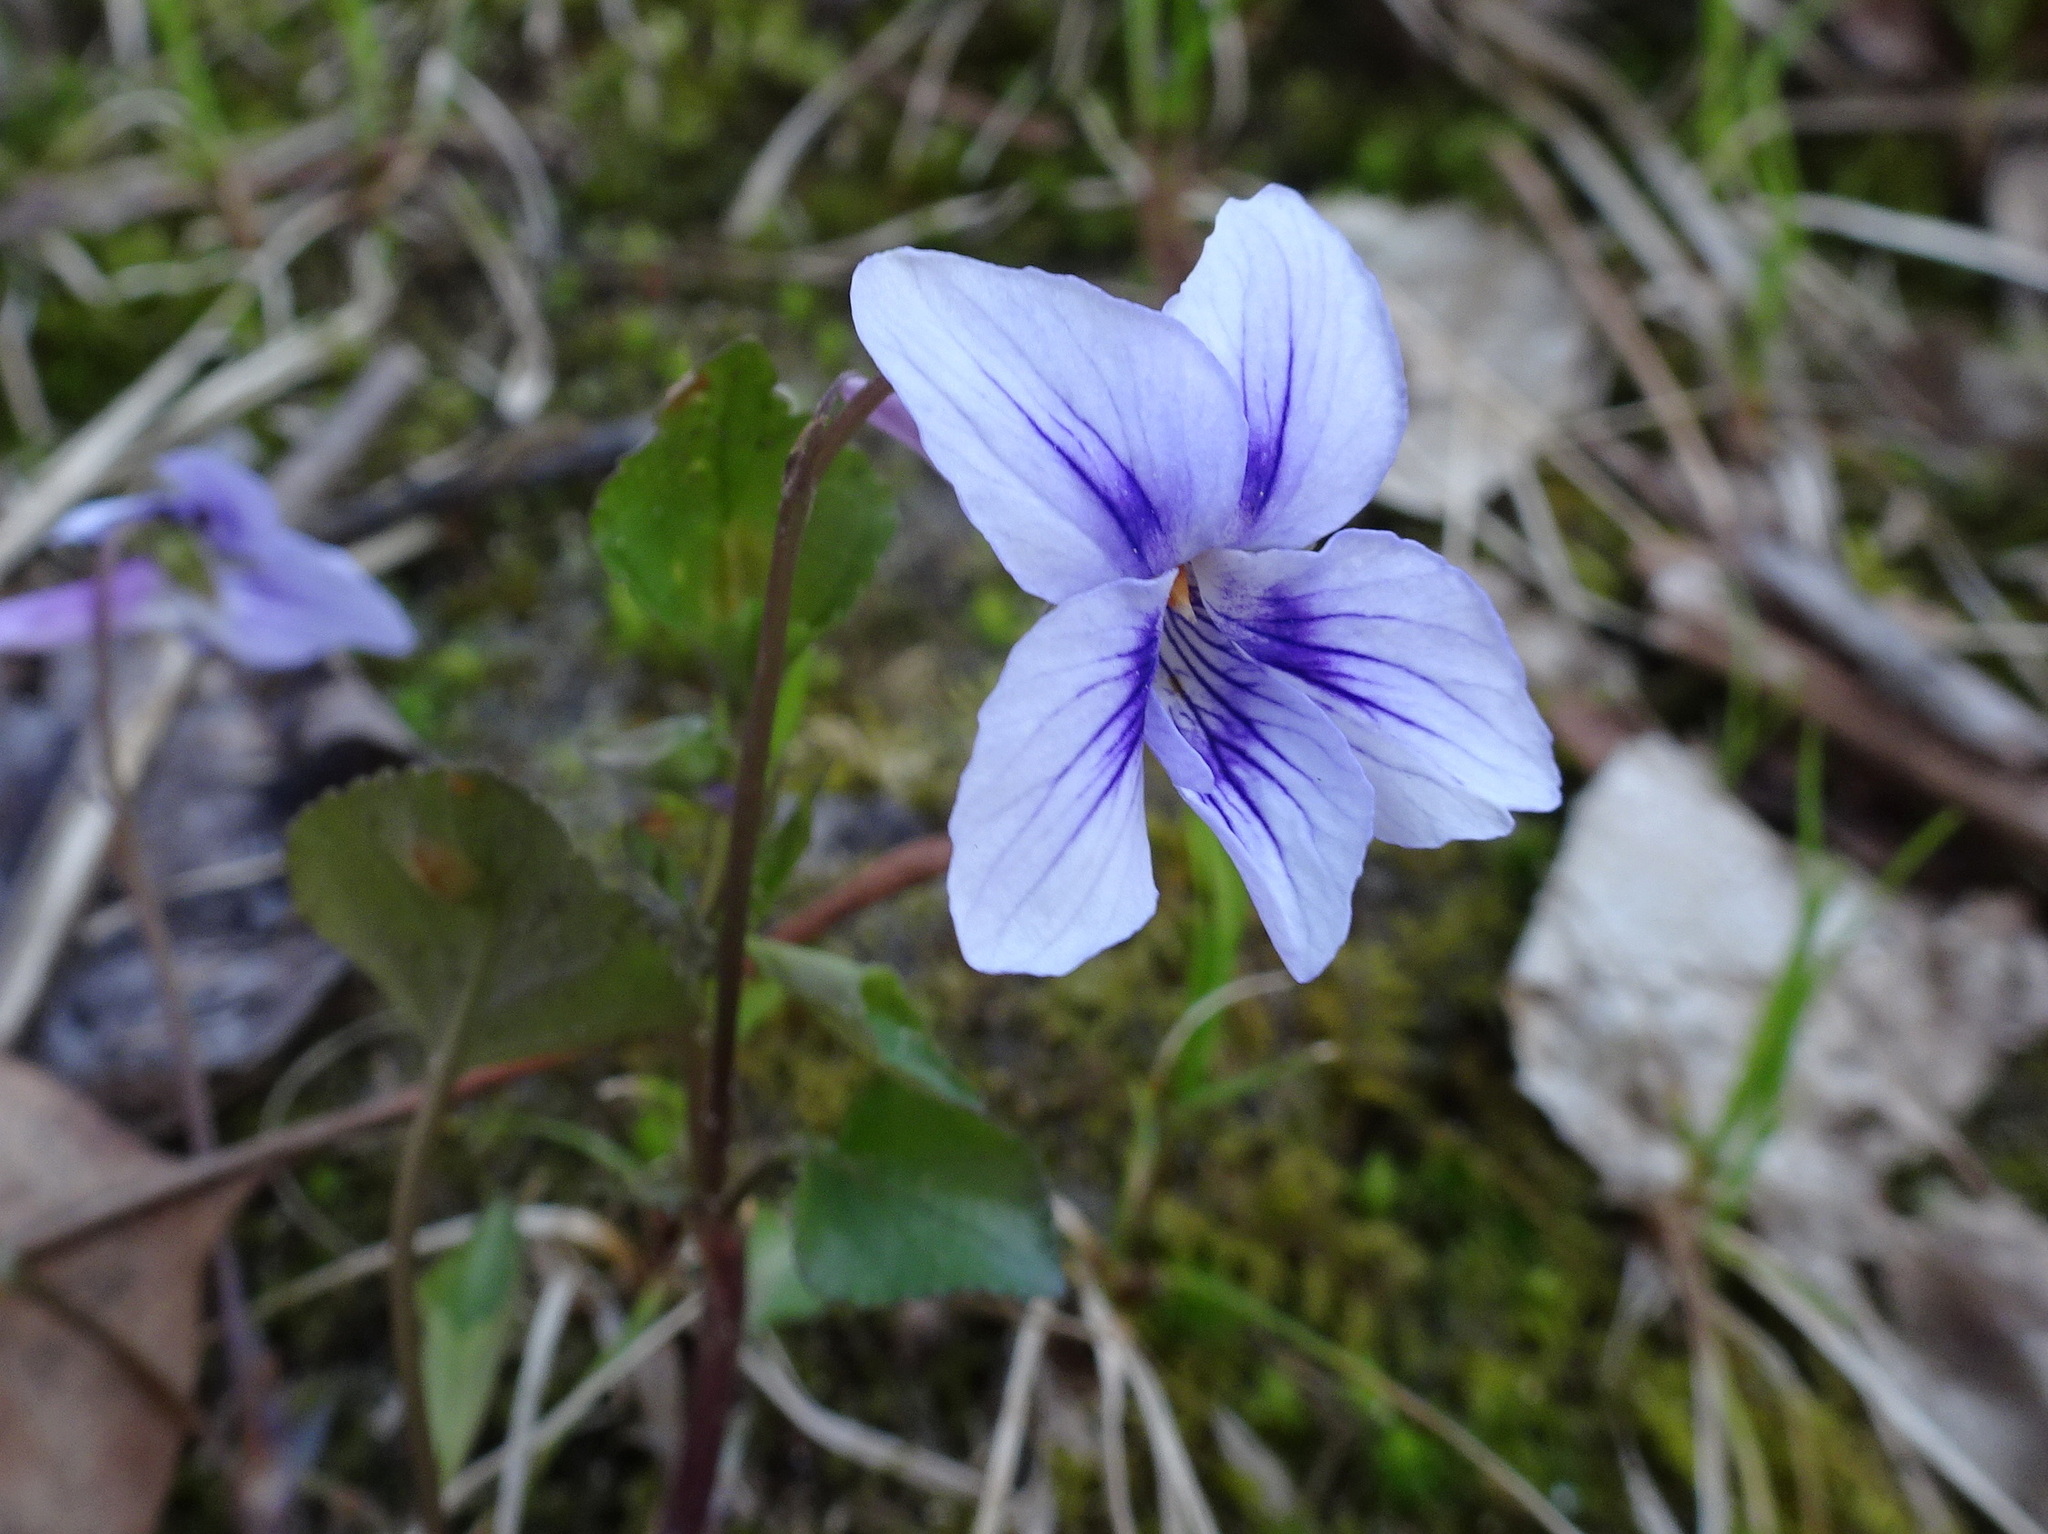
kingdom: Plantae
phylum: Tracheophyta
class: Magnoliopsida
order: Malpighiales
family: Violaceae
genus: Viola
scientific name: Viola rostrata
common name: Long-spur violet
